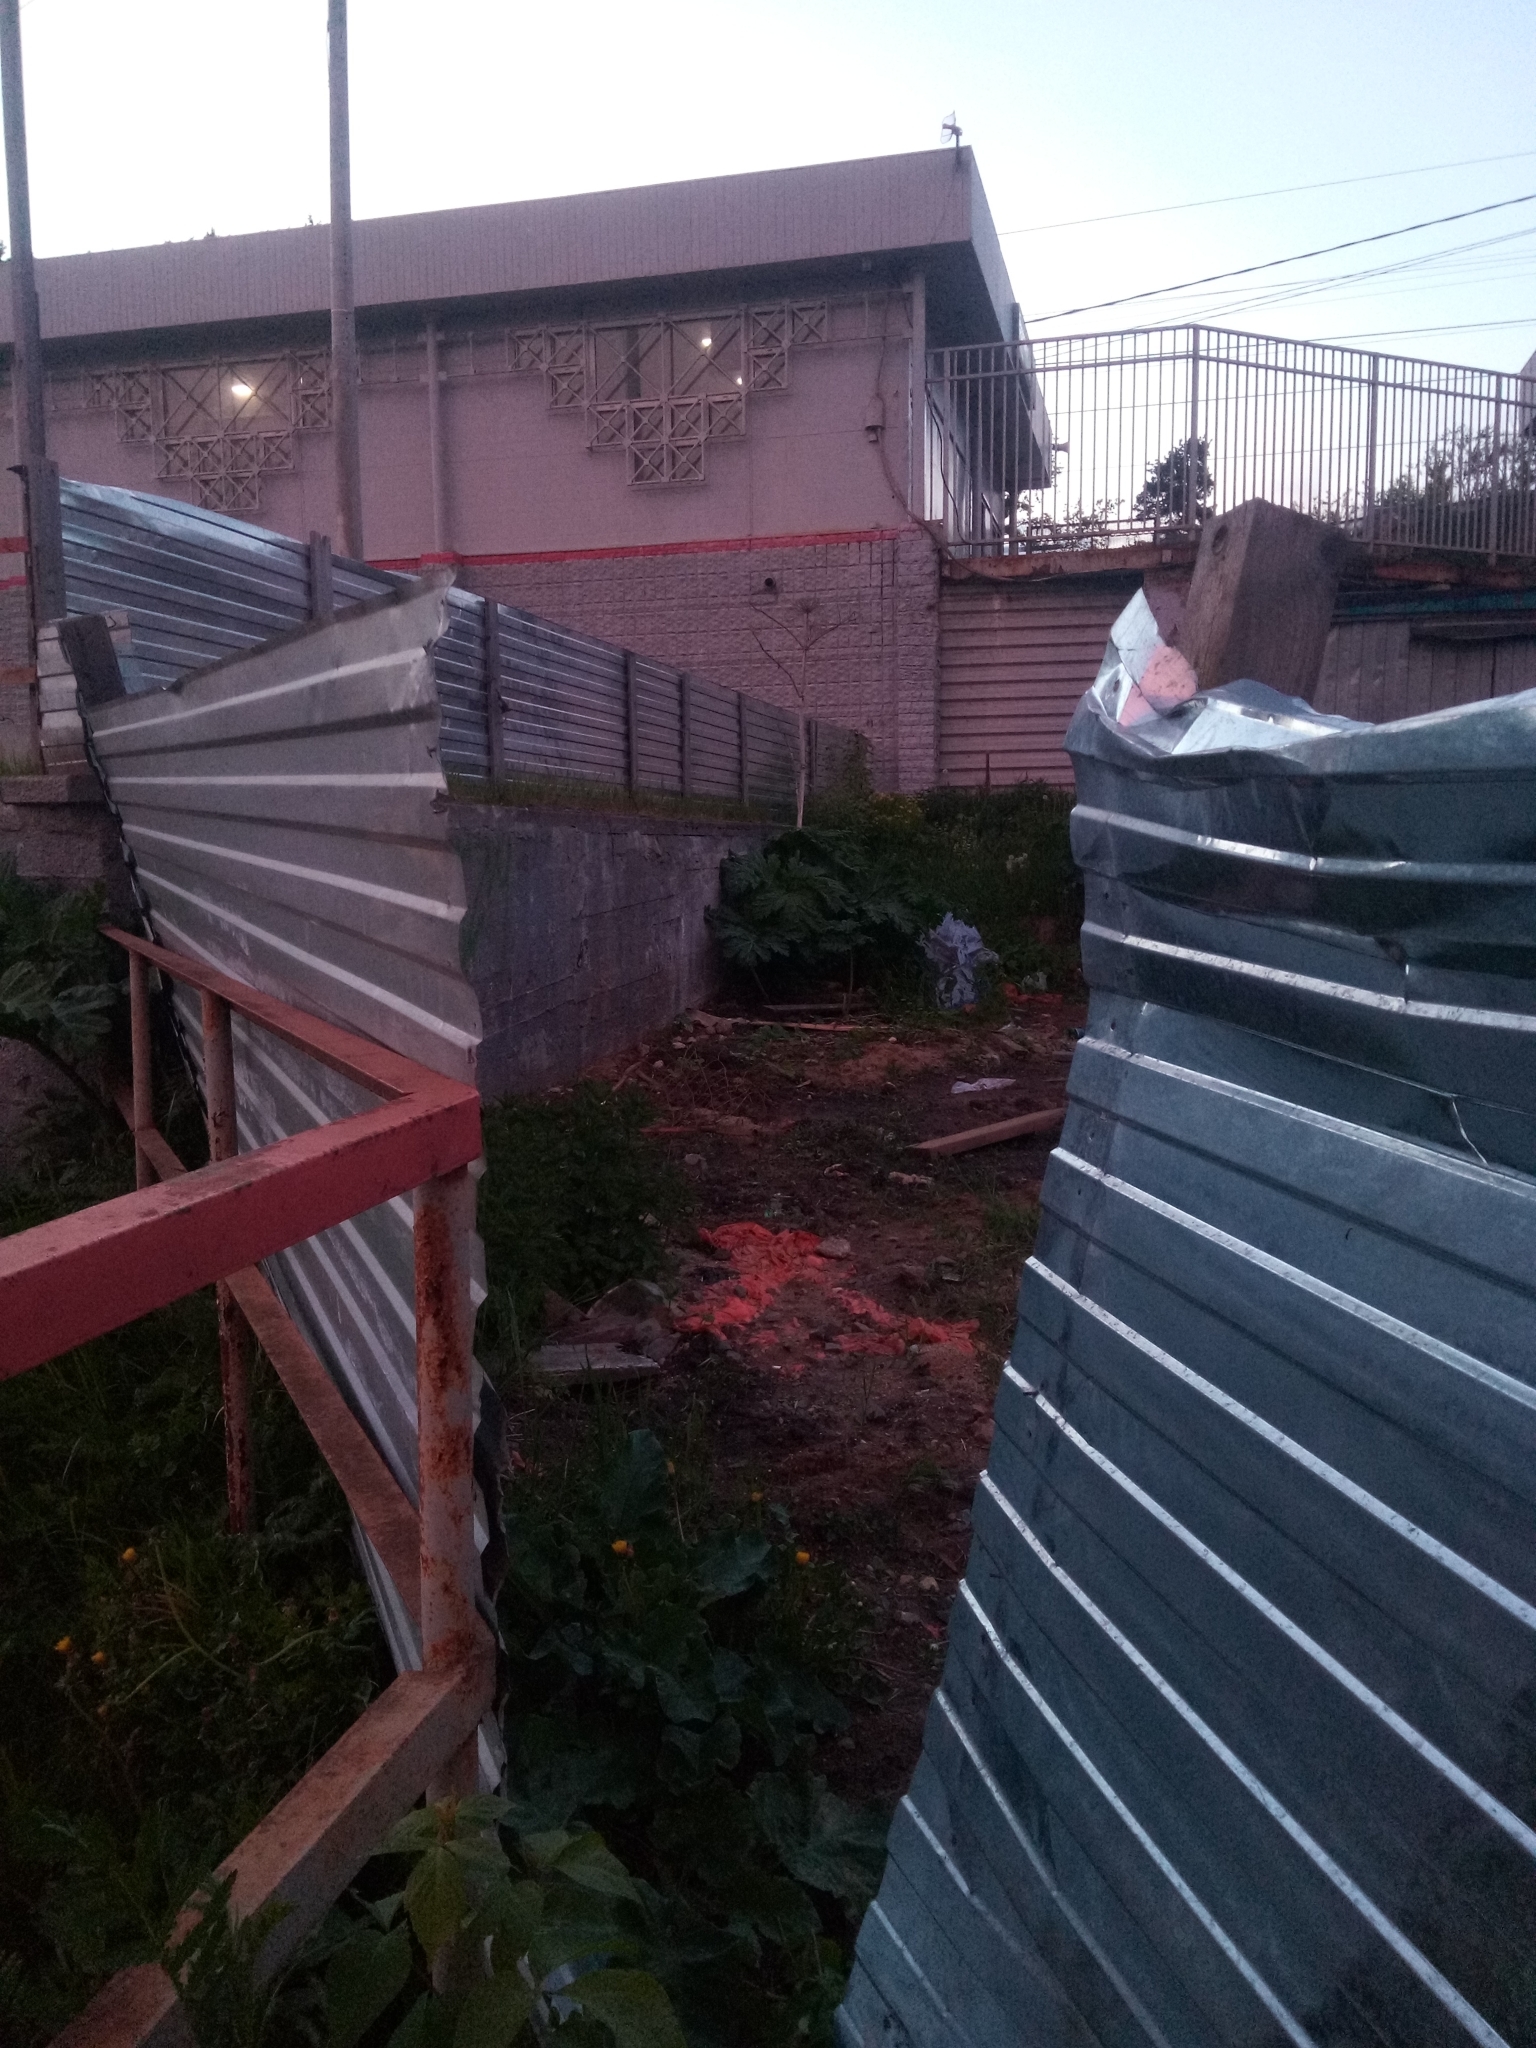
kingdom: Plantae
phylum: Tracheophyta
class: Magnoliopsida
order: Apiales
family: Apiaceae
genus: Heracleum
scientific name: Heracleum sosnowskyi
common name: Sosnowsky's hogweed
